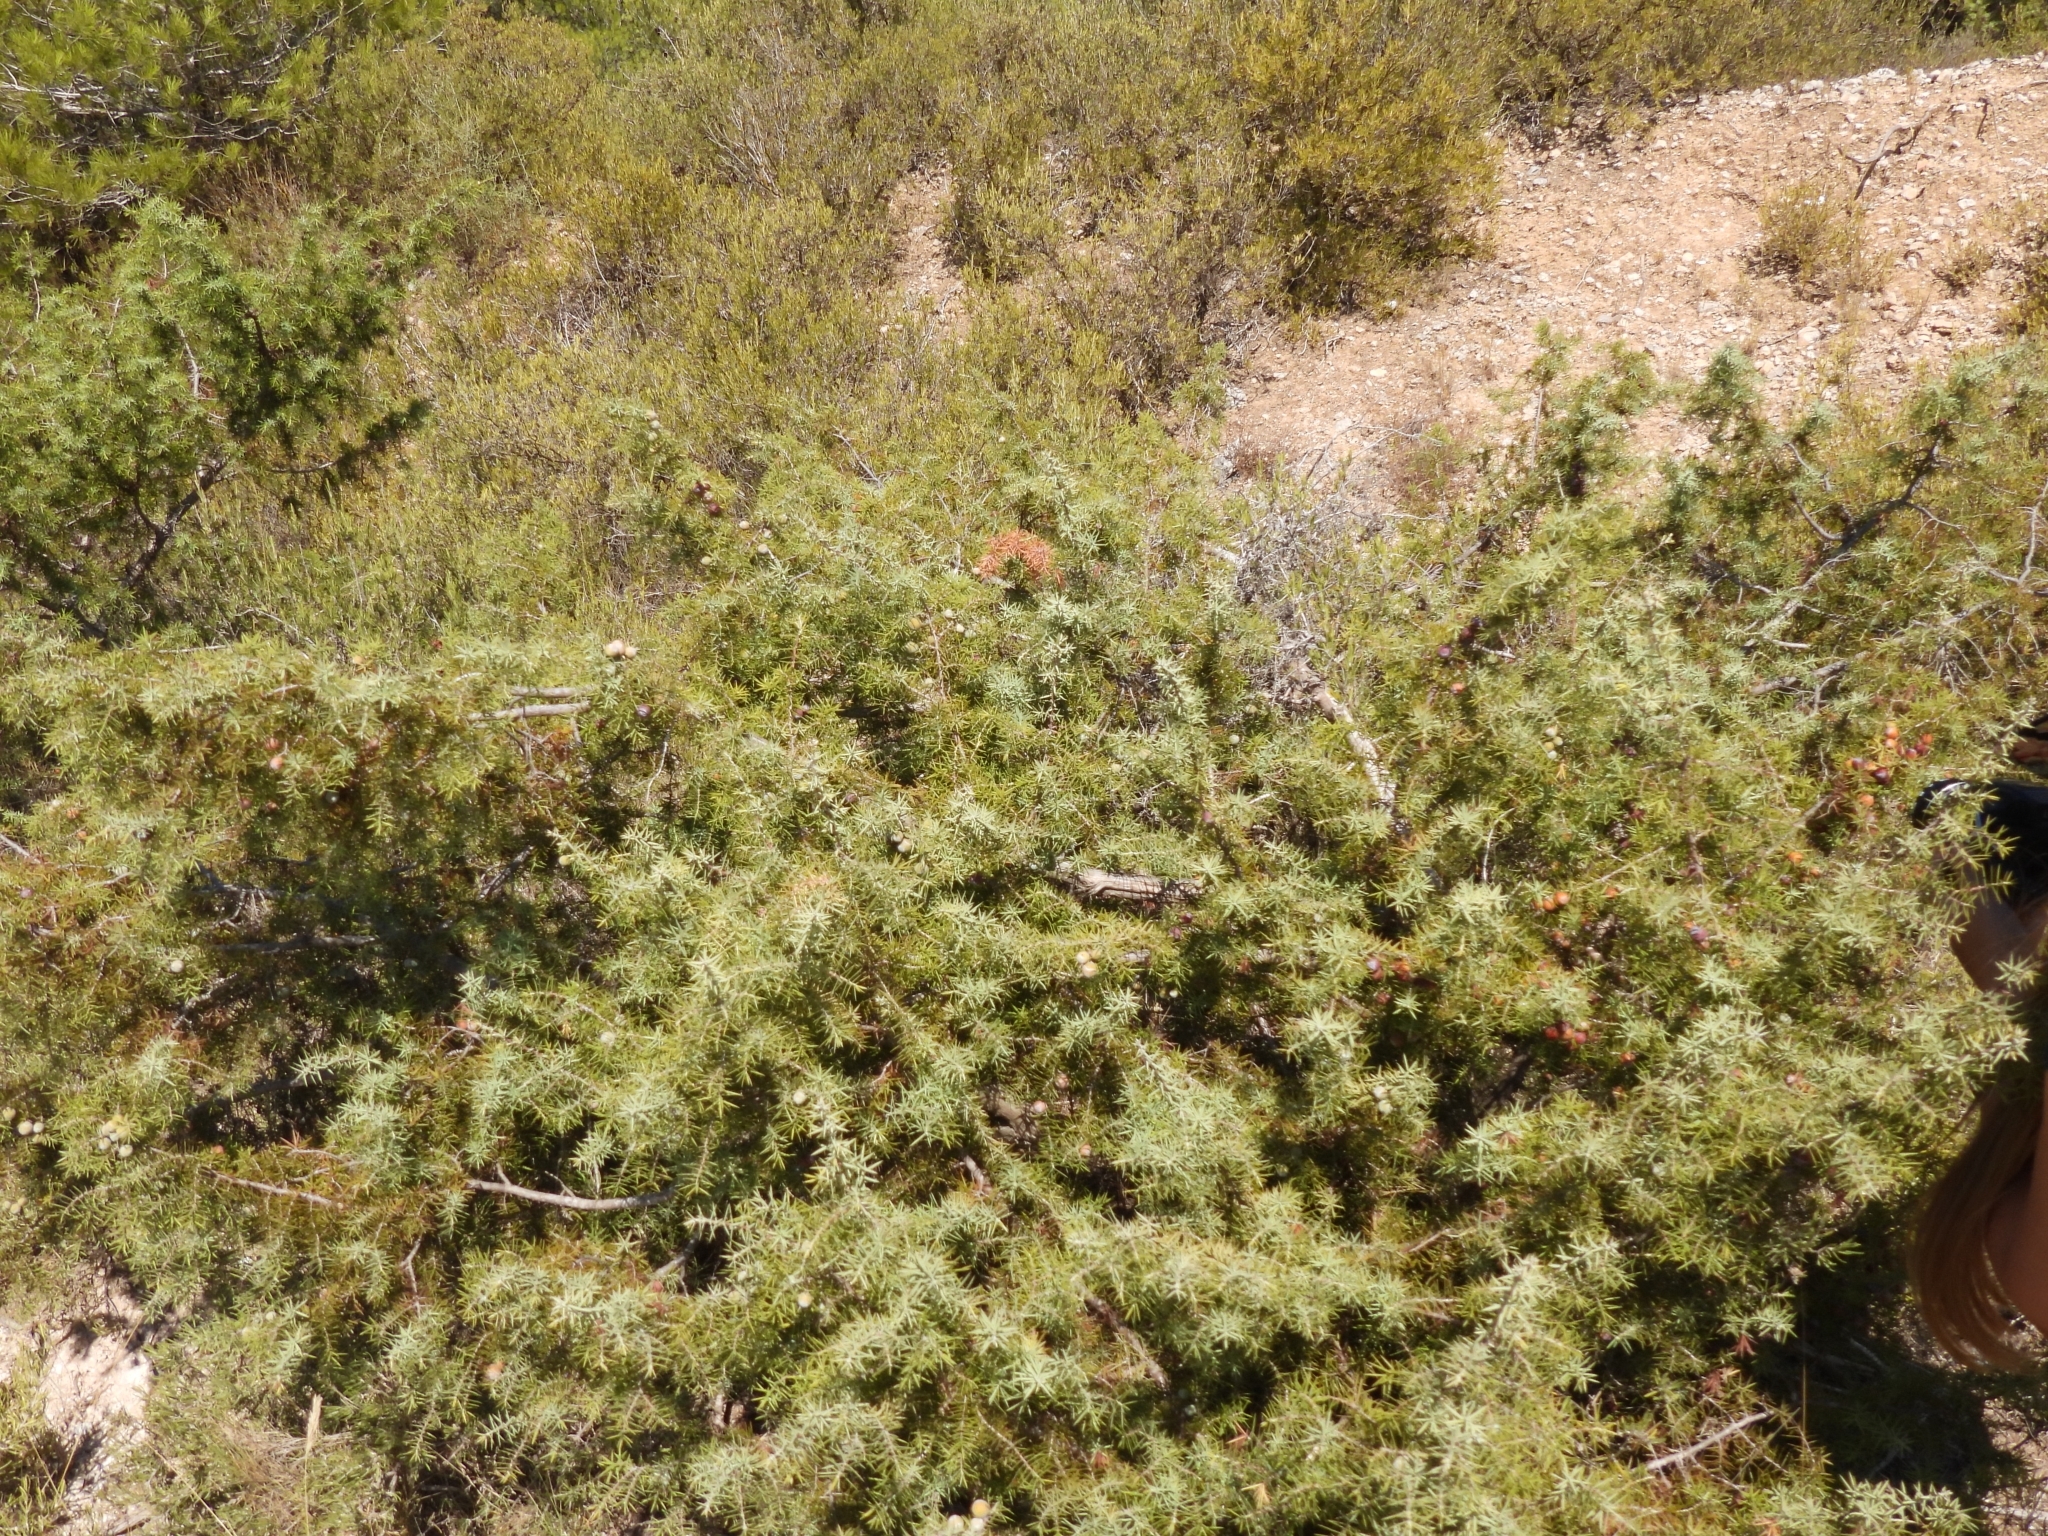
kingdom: Plantae
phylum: Tracheophyta
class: Pinopsida
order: Pinales
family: Cupressaceae
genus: Juniperus
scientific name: Juniperus oxycedrus
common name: Prickly juniper
